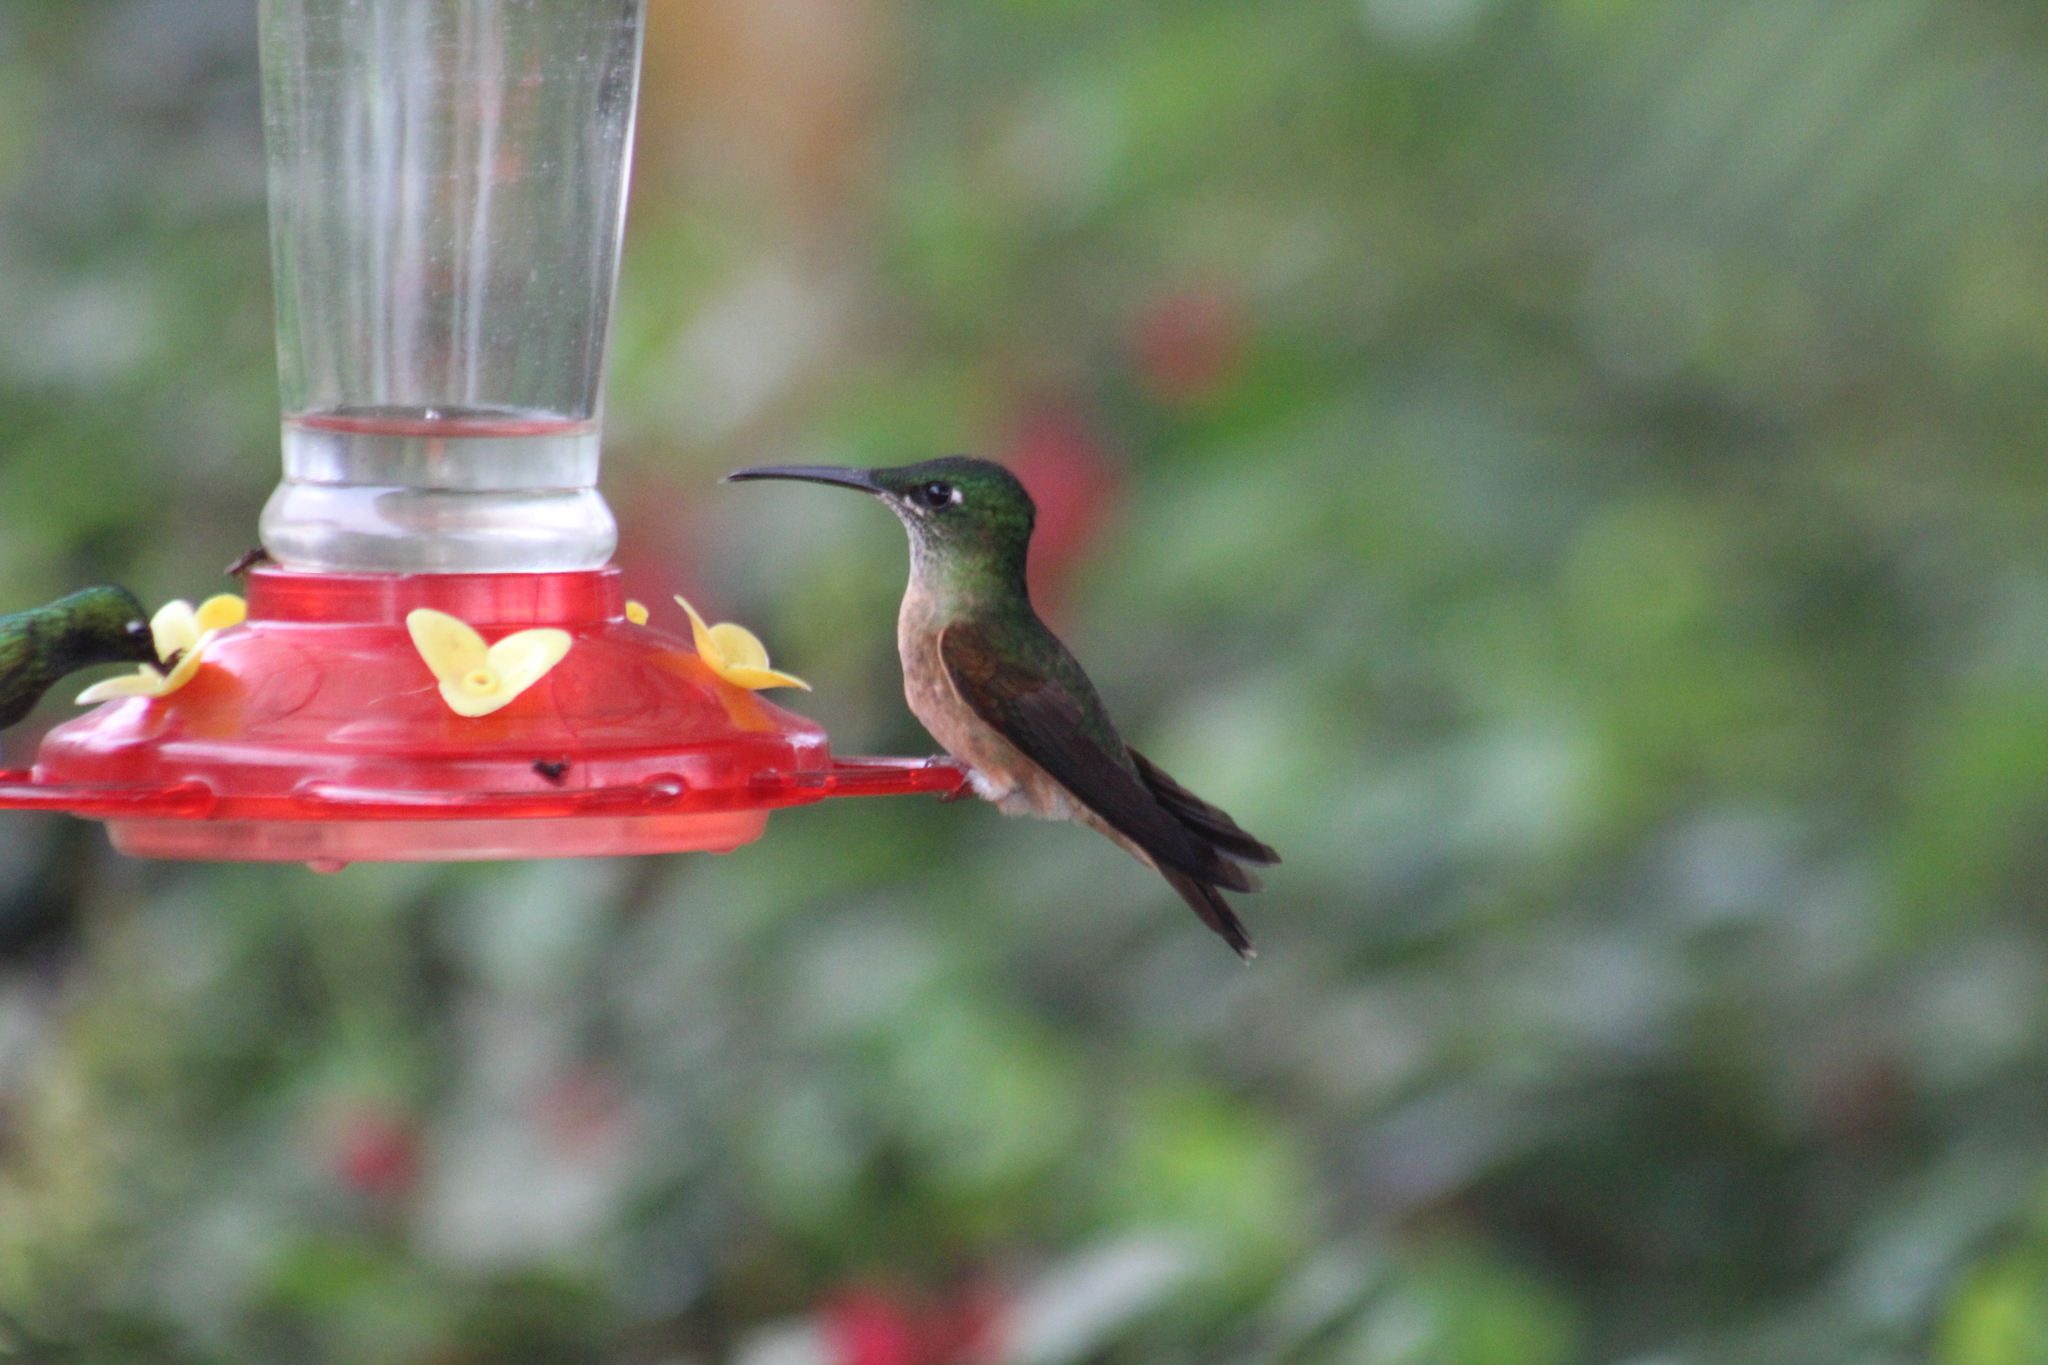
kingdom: Animalia
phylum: Chordata
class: Aves
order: Apodiformes
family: Trochilidae
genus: Heliodoxa
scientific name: Heliodoxa rubinoides
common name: Fawn-breasted brilliant
